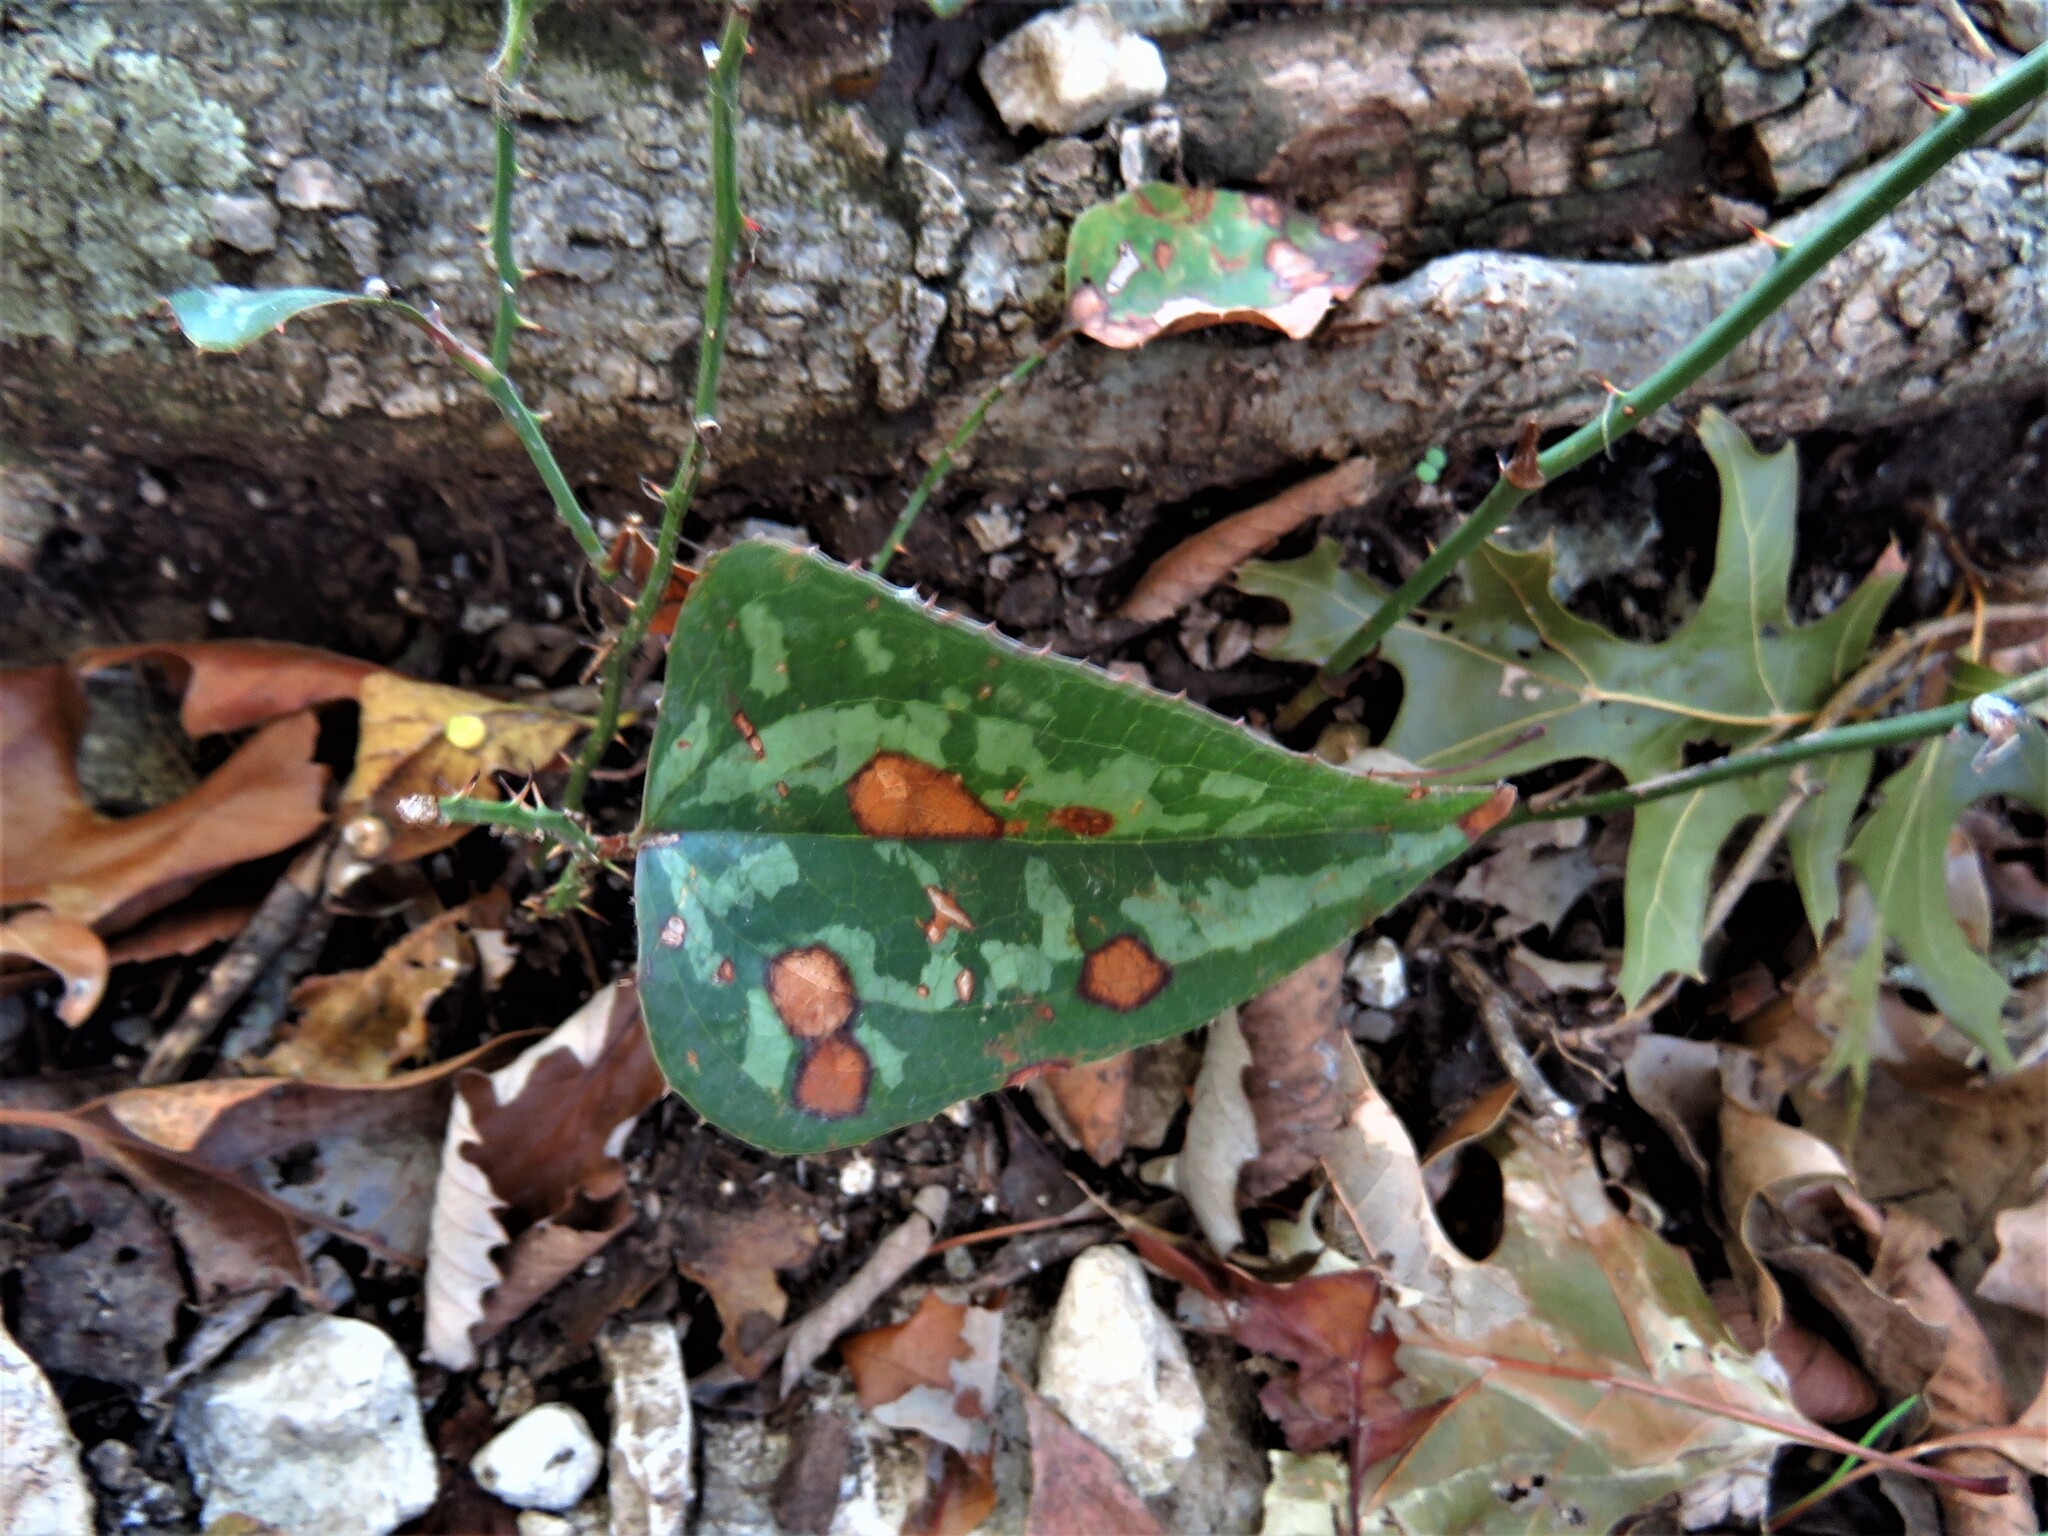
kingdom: Plantae
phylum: Tracheophyta
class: Liliopsida
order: Liliales
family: Smilacaceae
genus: Smilax
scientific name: Smilax bona-nox
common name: Catbrier
